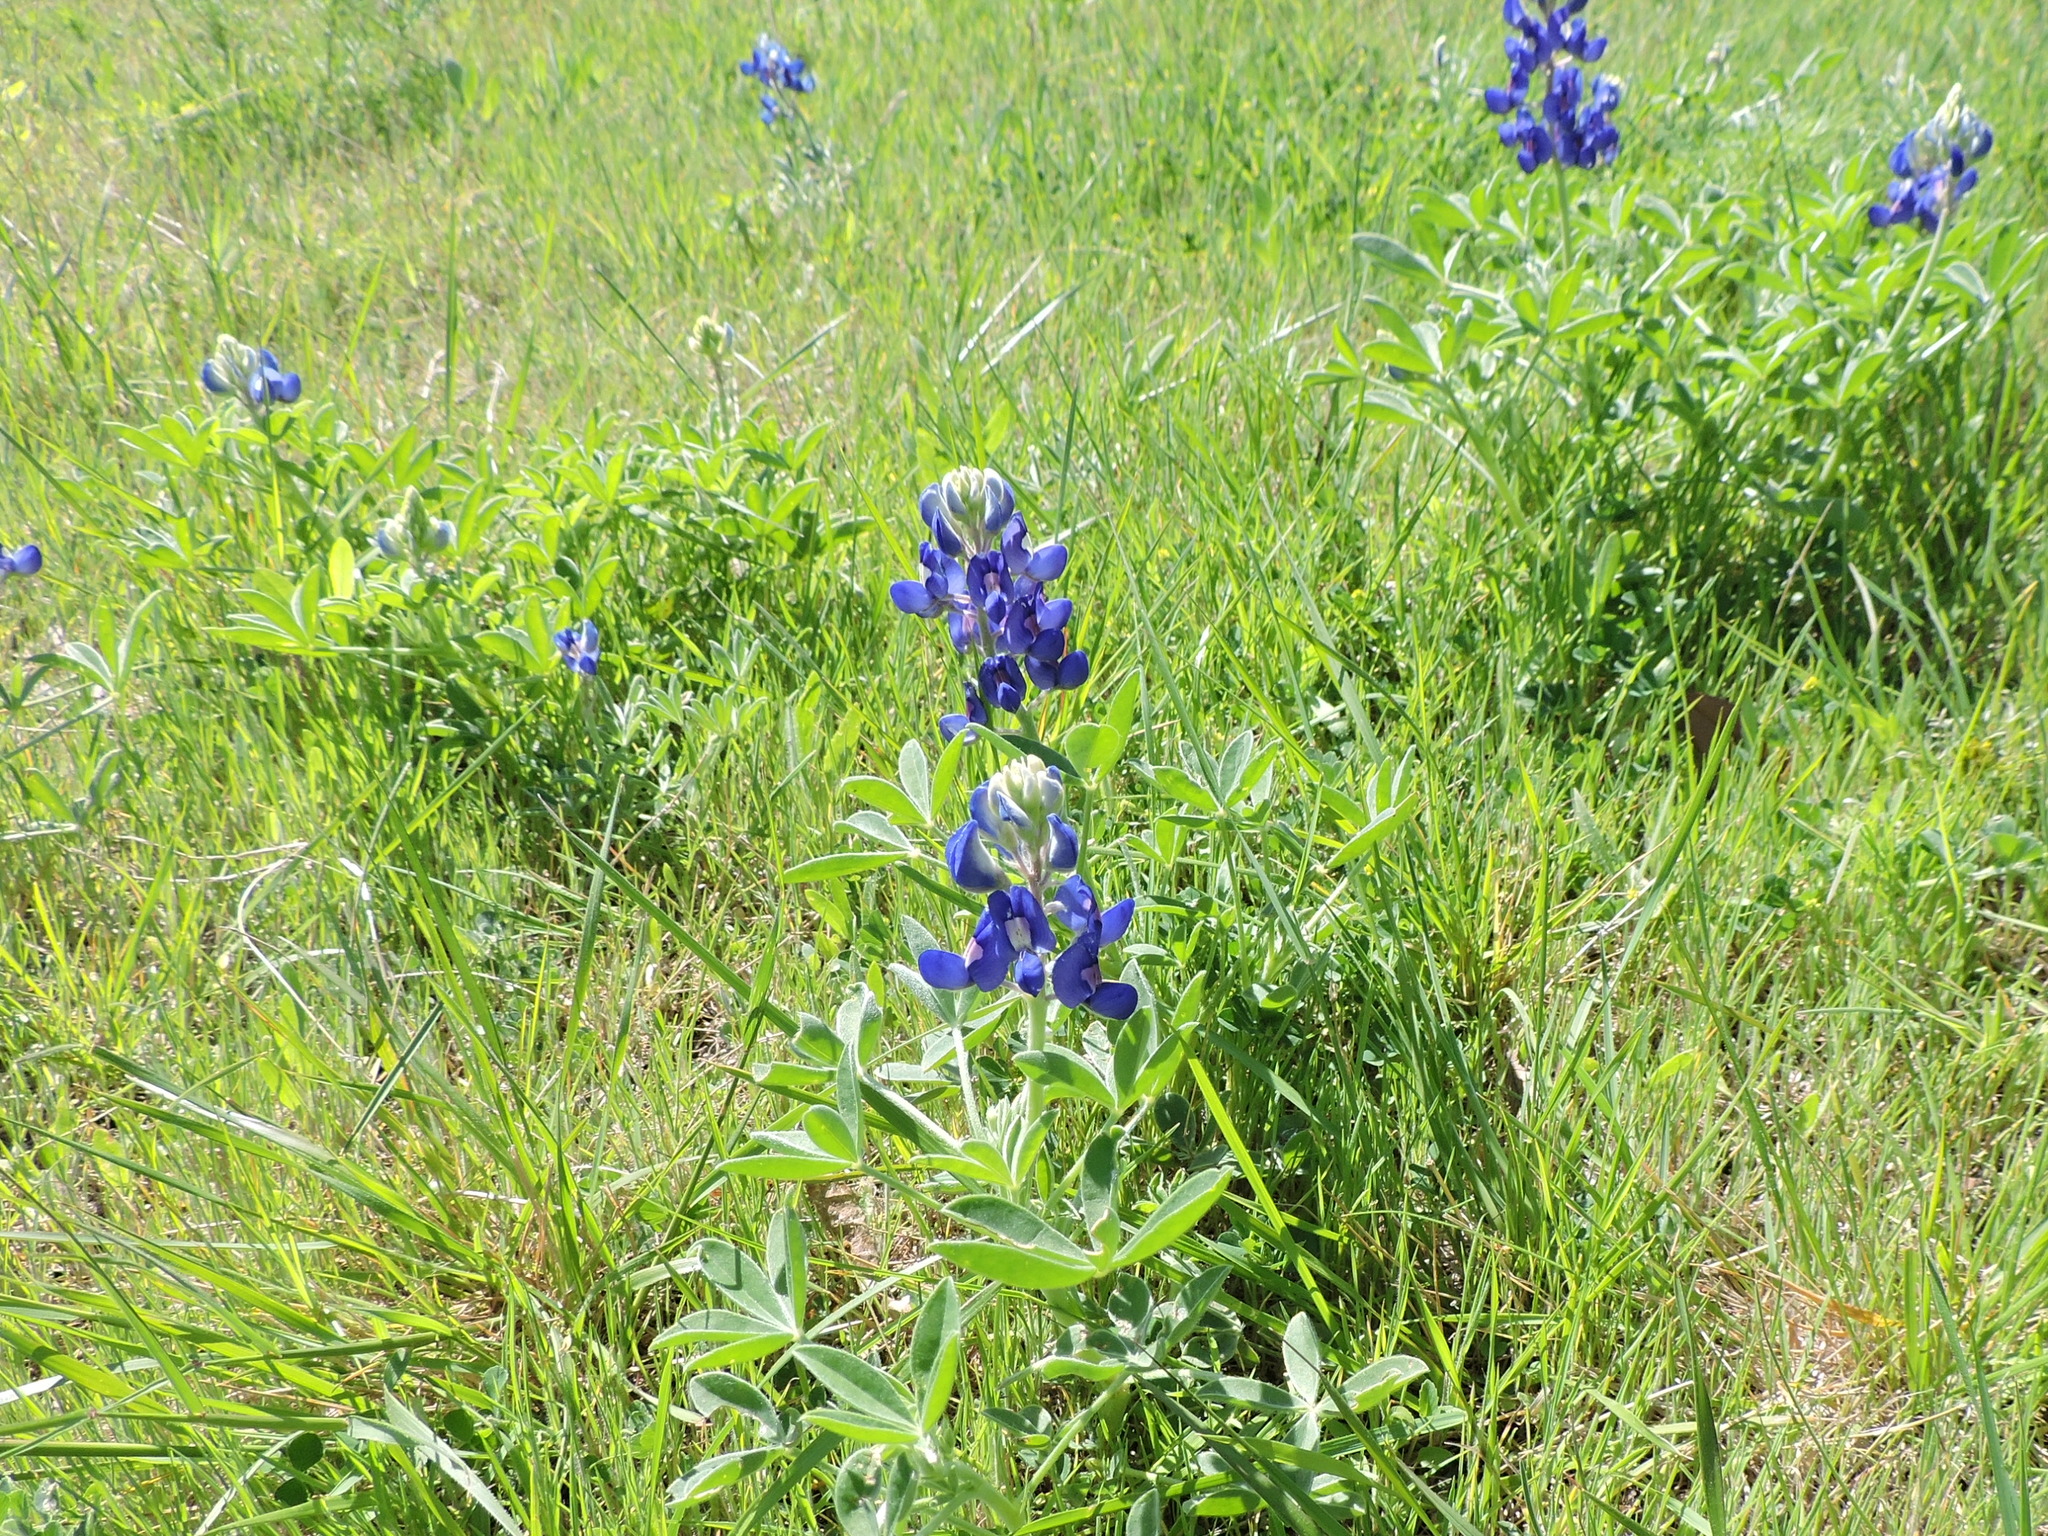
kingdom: Plantae
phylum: Tracheophyta
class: Magnoliopsida
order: Fabales
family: Fabaceae
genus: Lupinus
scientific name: Lupinus texensis
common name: Texas bluebonnet
